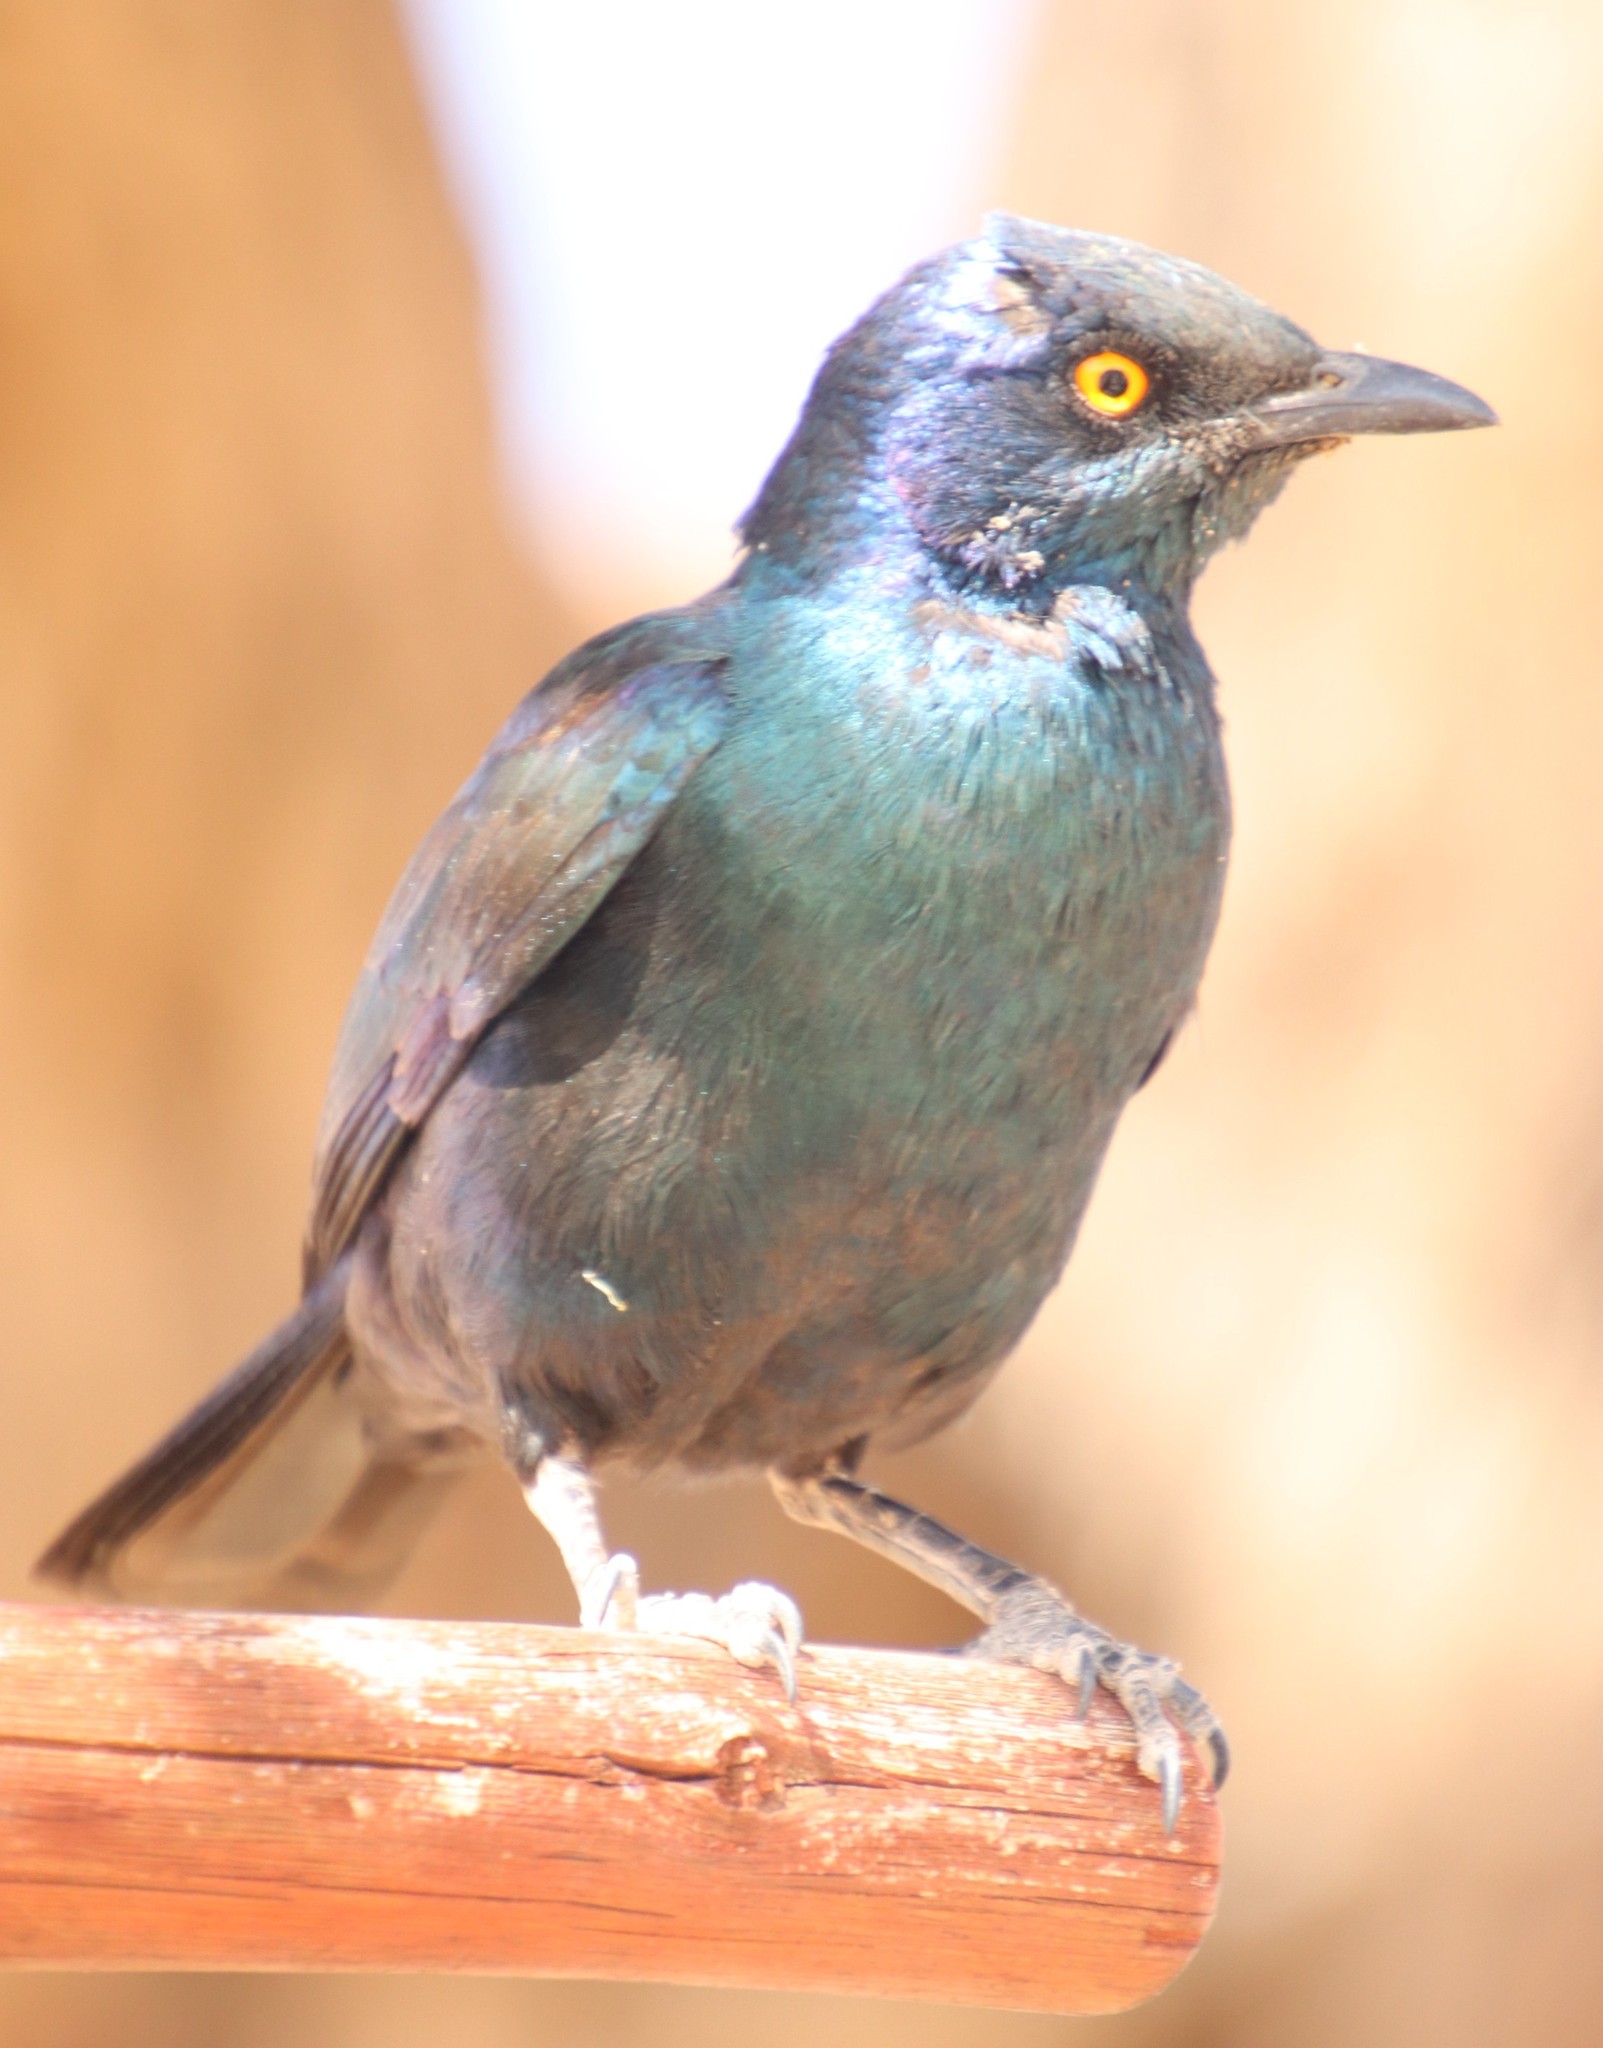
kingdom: Animalia
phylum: Chordata
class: Aves
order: Passeriformes
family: Sturnidae
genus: Lamprotornis
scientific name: Lamprotornis nitens
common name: Cape starling
